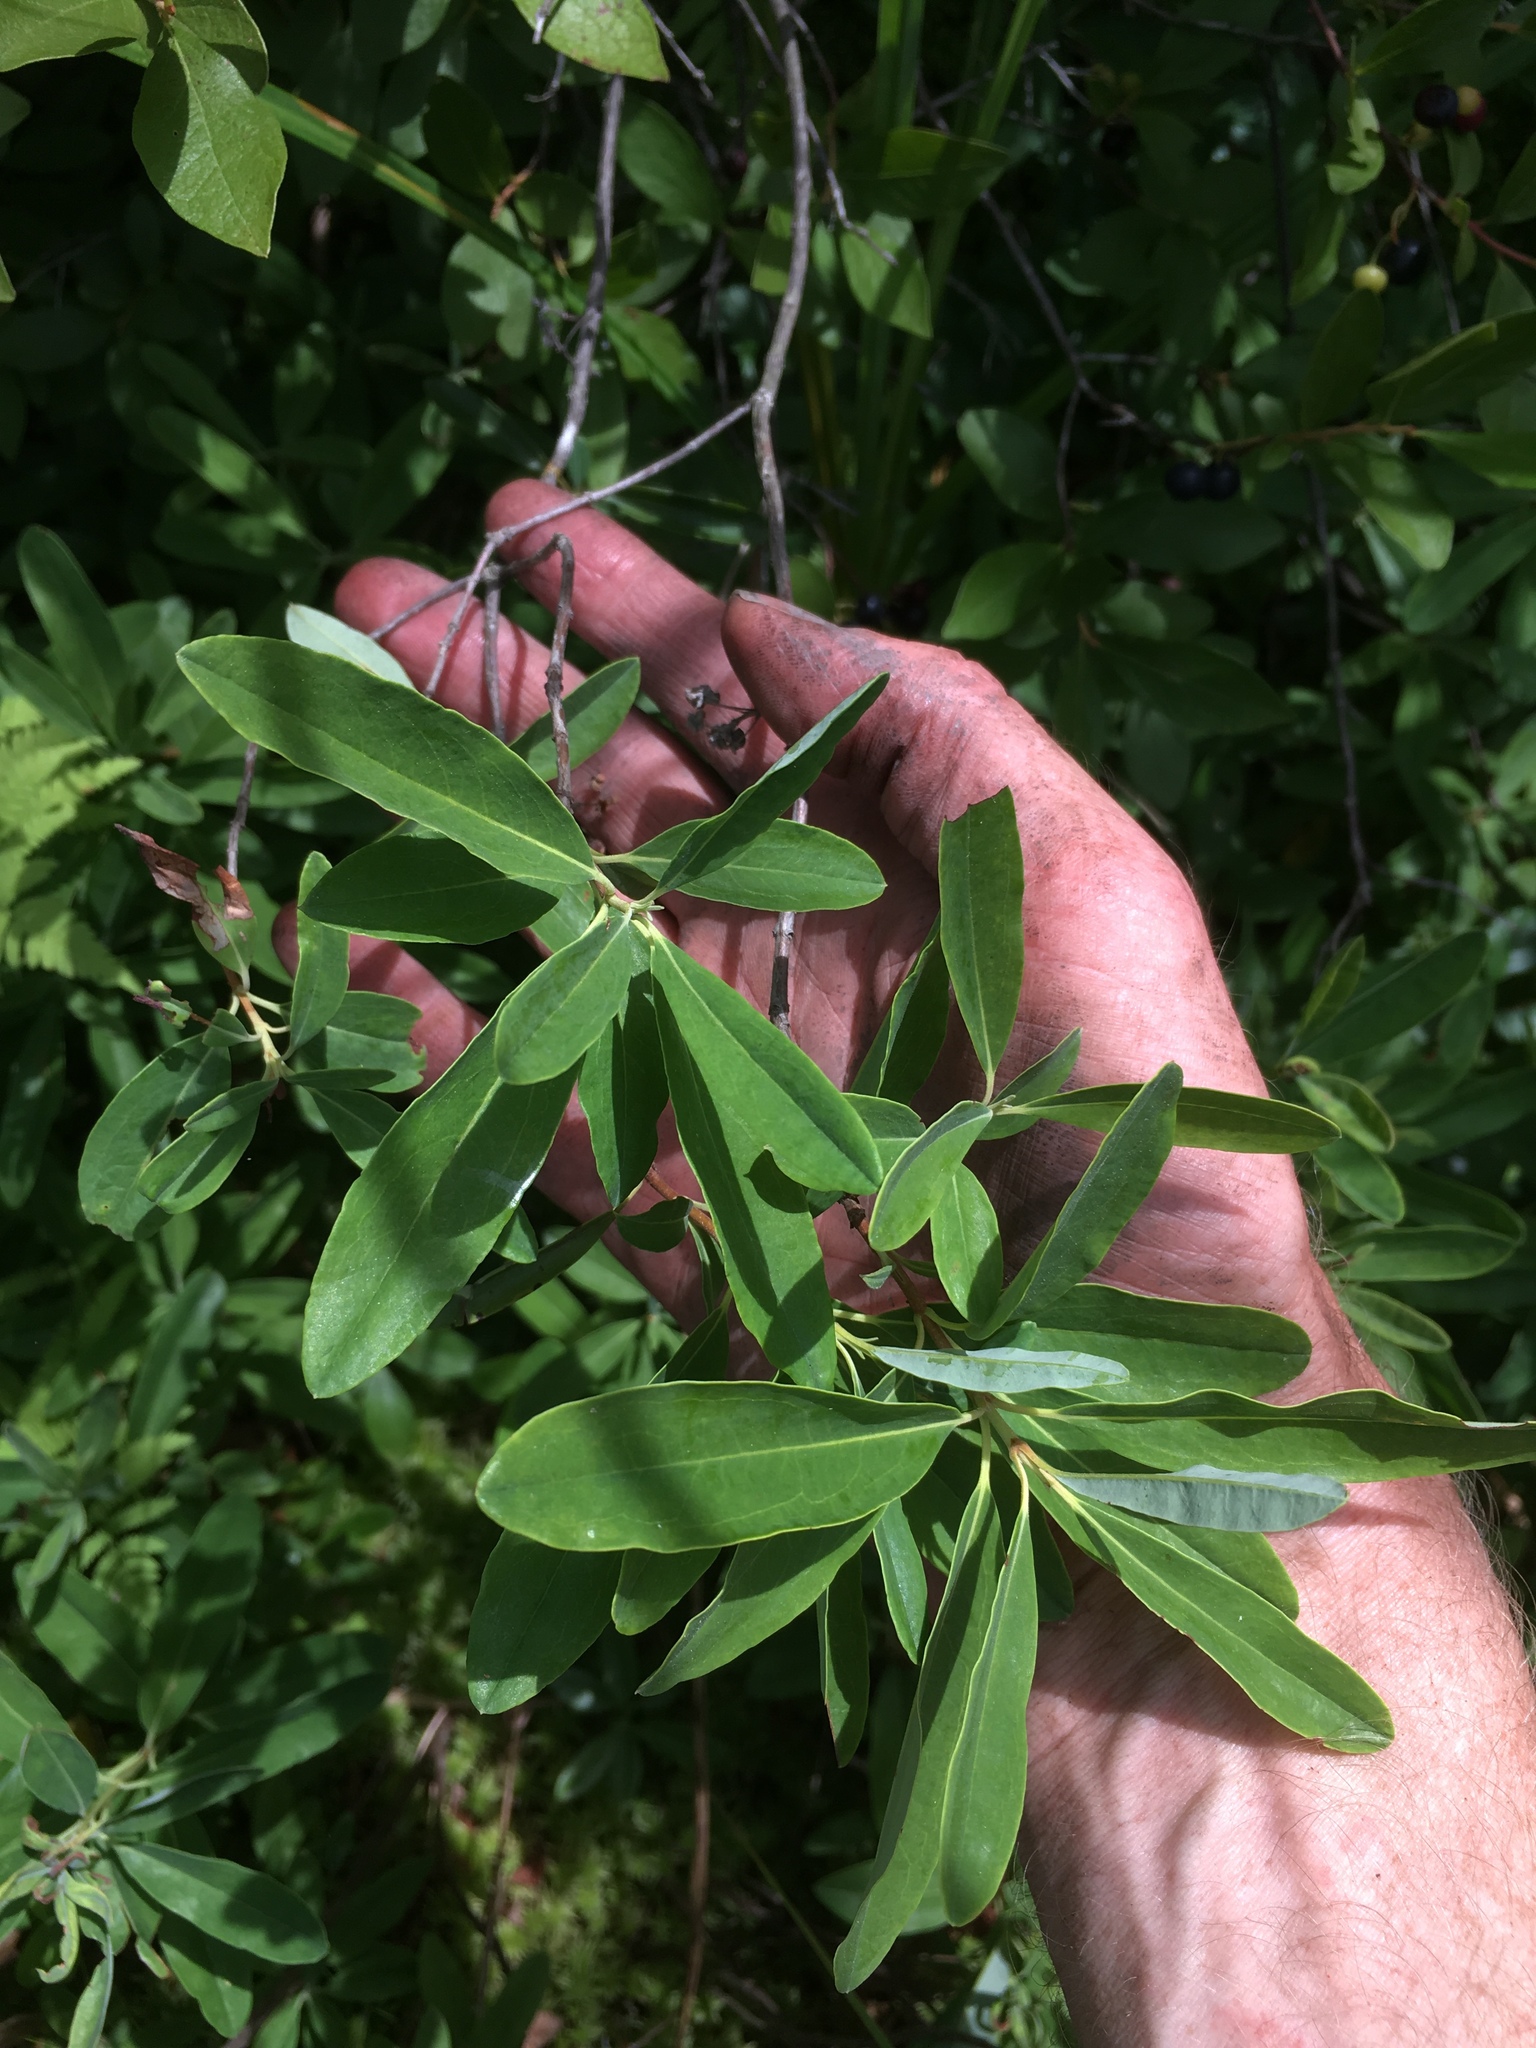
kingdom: Plantae
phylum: Tracheophyta
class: Magnoliopsida
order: Ericales
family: Ericaceae
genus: Kalmia
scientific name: Kalmia angustifolia
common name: Sheep-laurel
